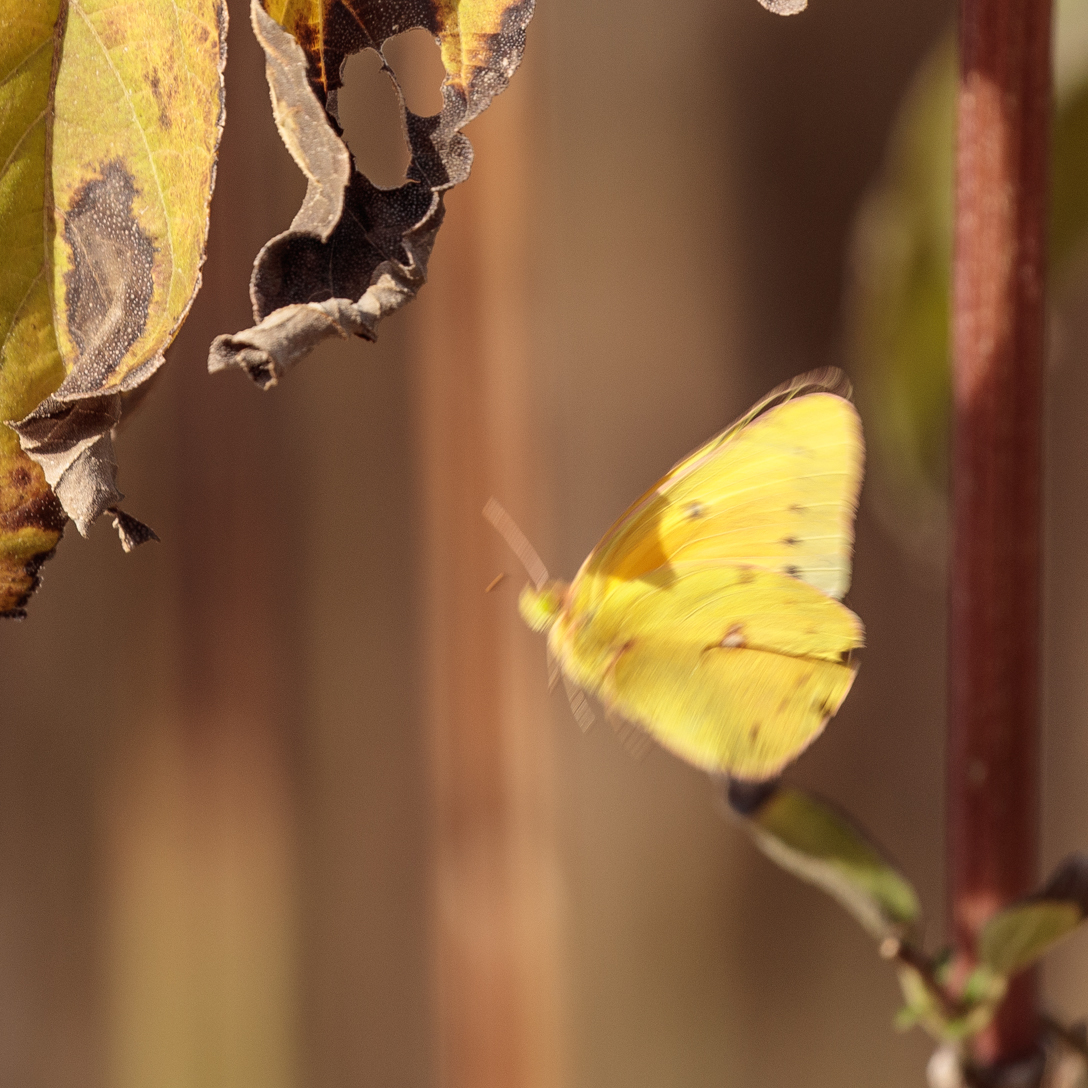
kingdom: Animalia
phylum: Arthropoda
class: Insecta
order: Lepidoptera
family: Pieridae
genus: Colias
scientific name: Colias eurytheme
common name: Alfalfa butterfly
